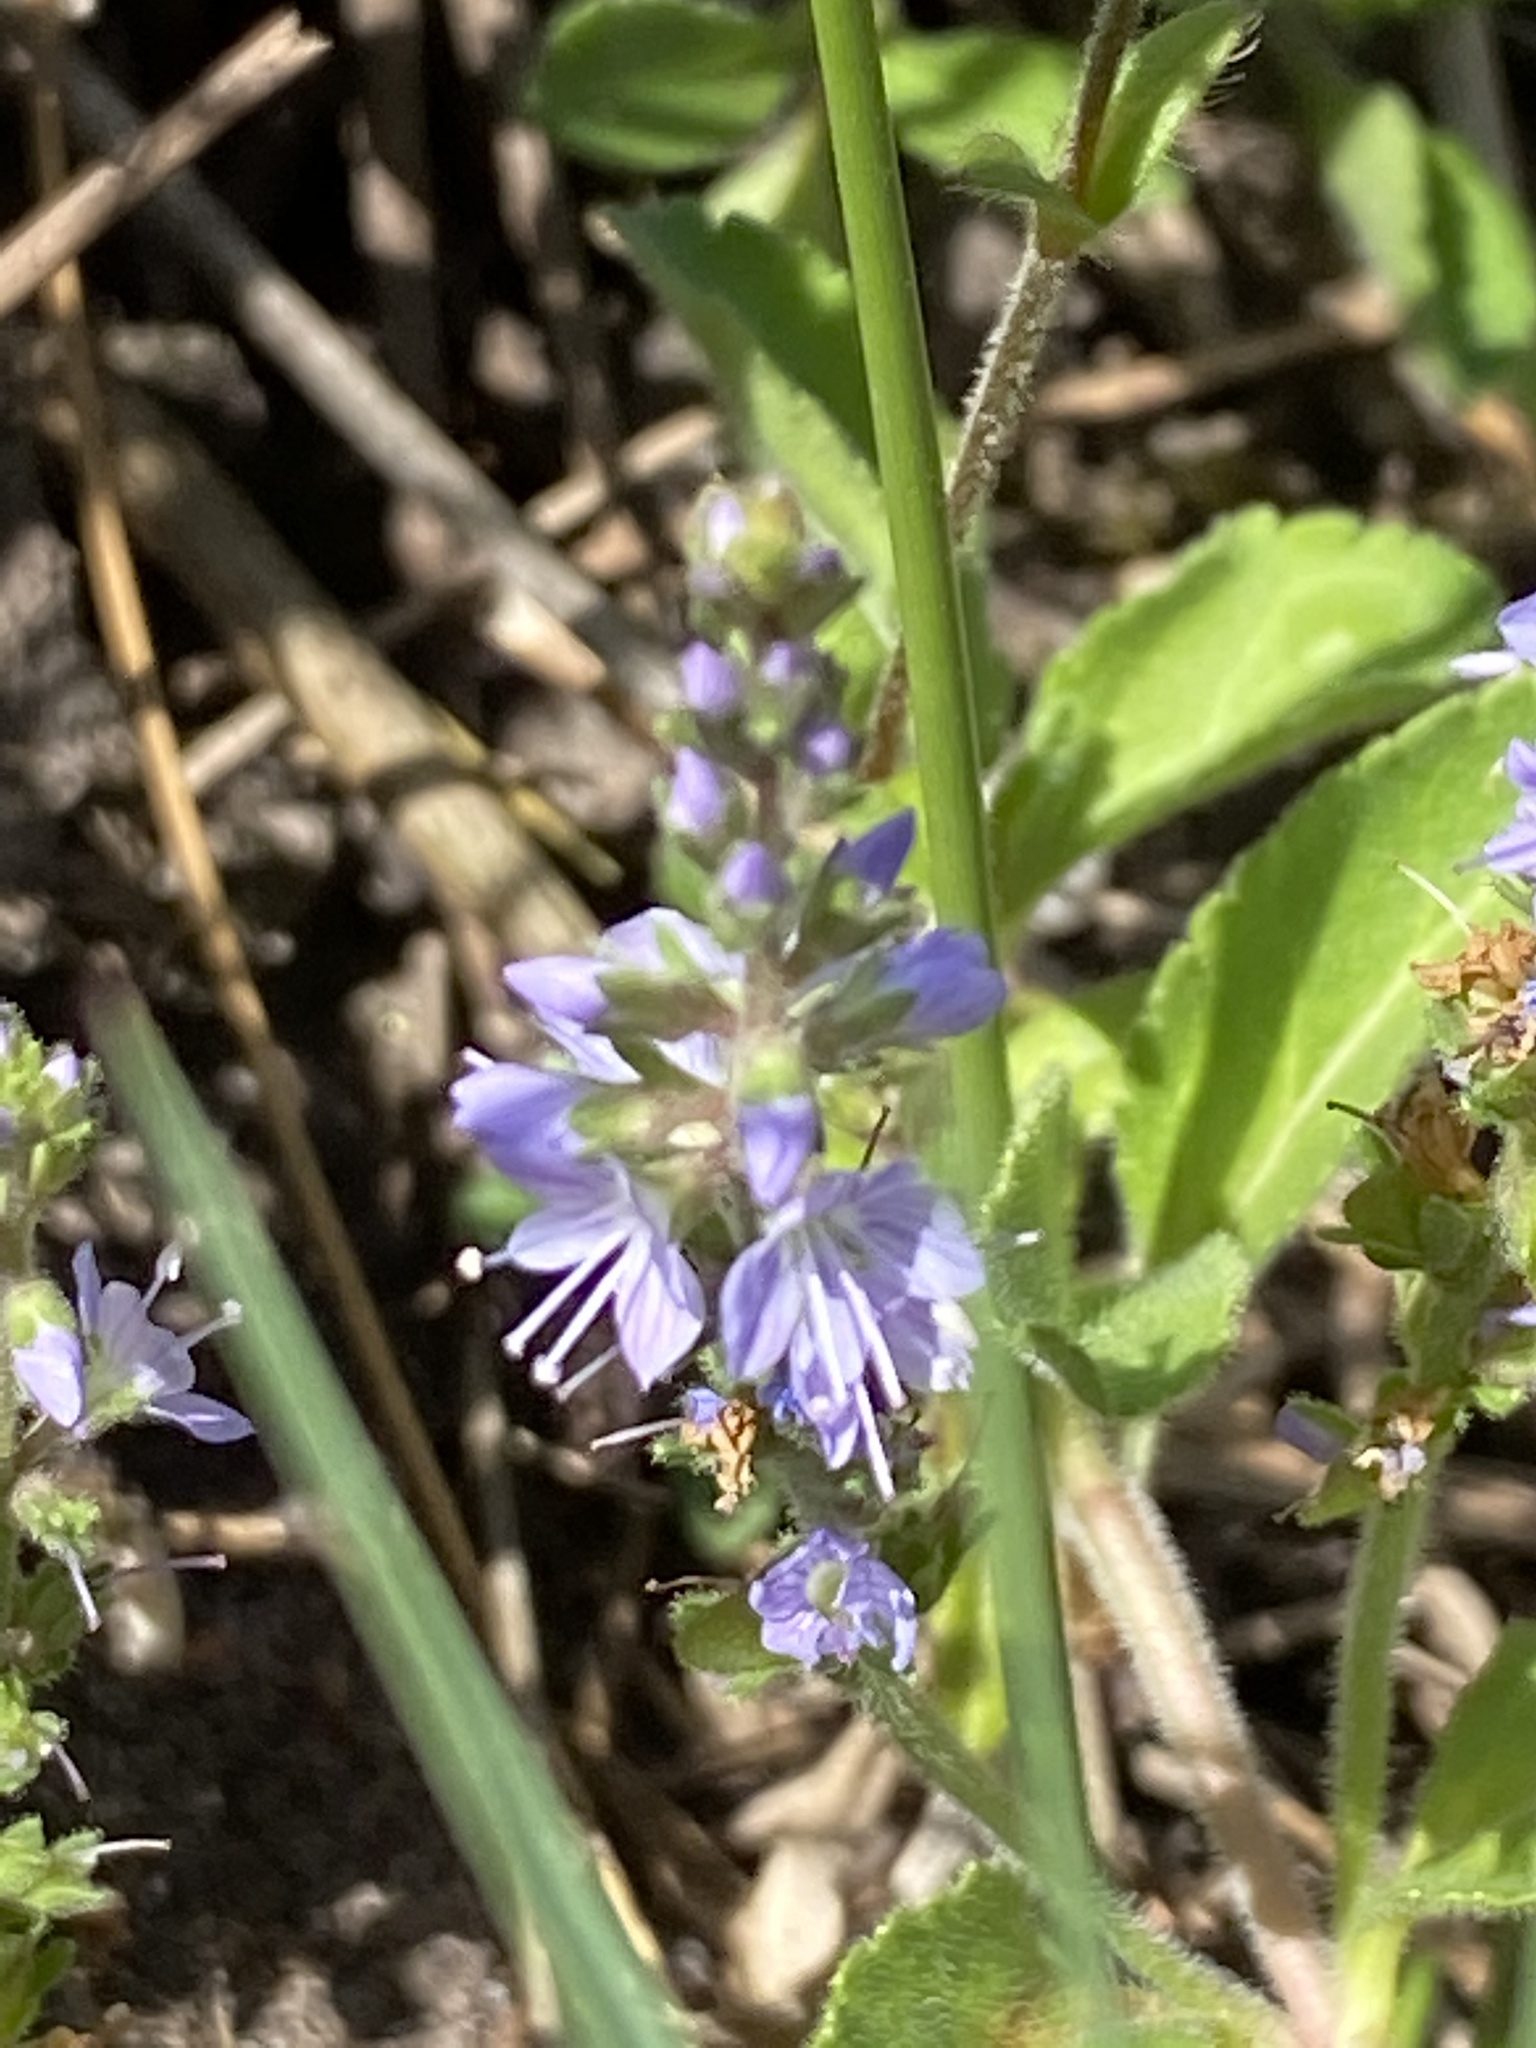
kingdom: Plantae
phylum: Tracheophyta
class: Magnoliopsida
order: Lamiales
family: Plantaginaceae
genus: Veronica
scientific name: Veronica officinalis
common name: Common speedwell
